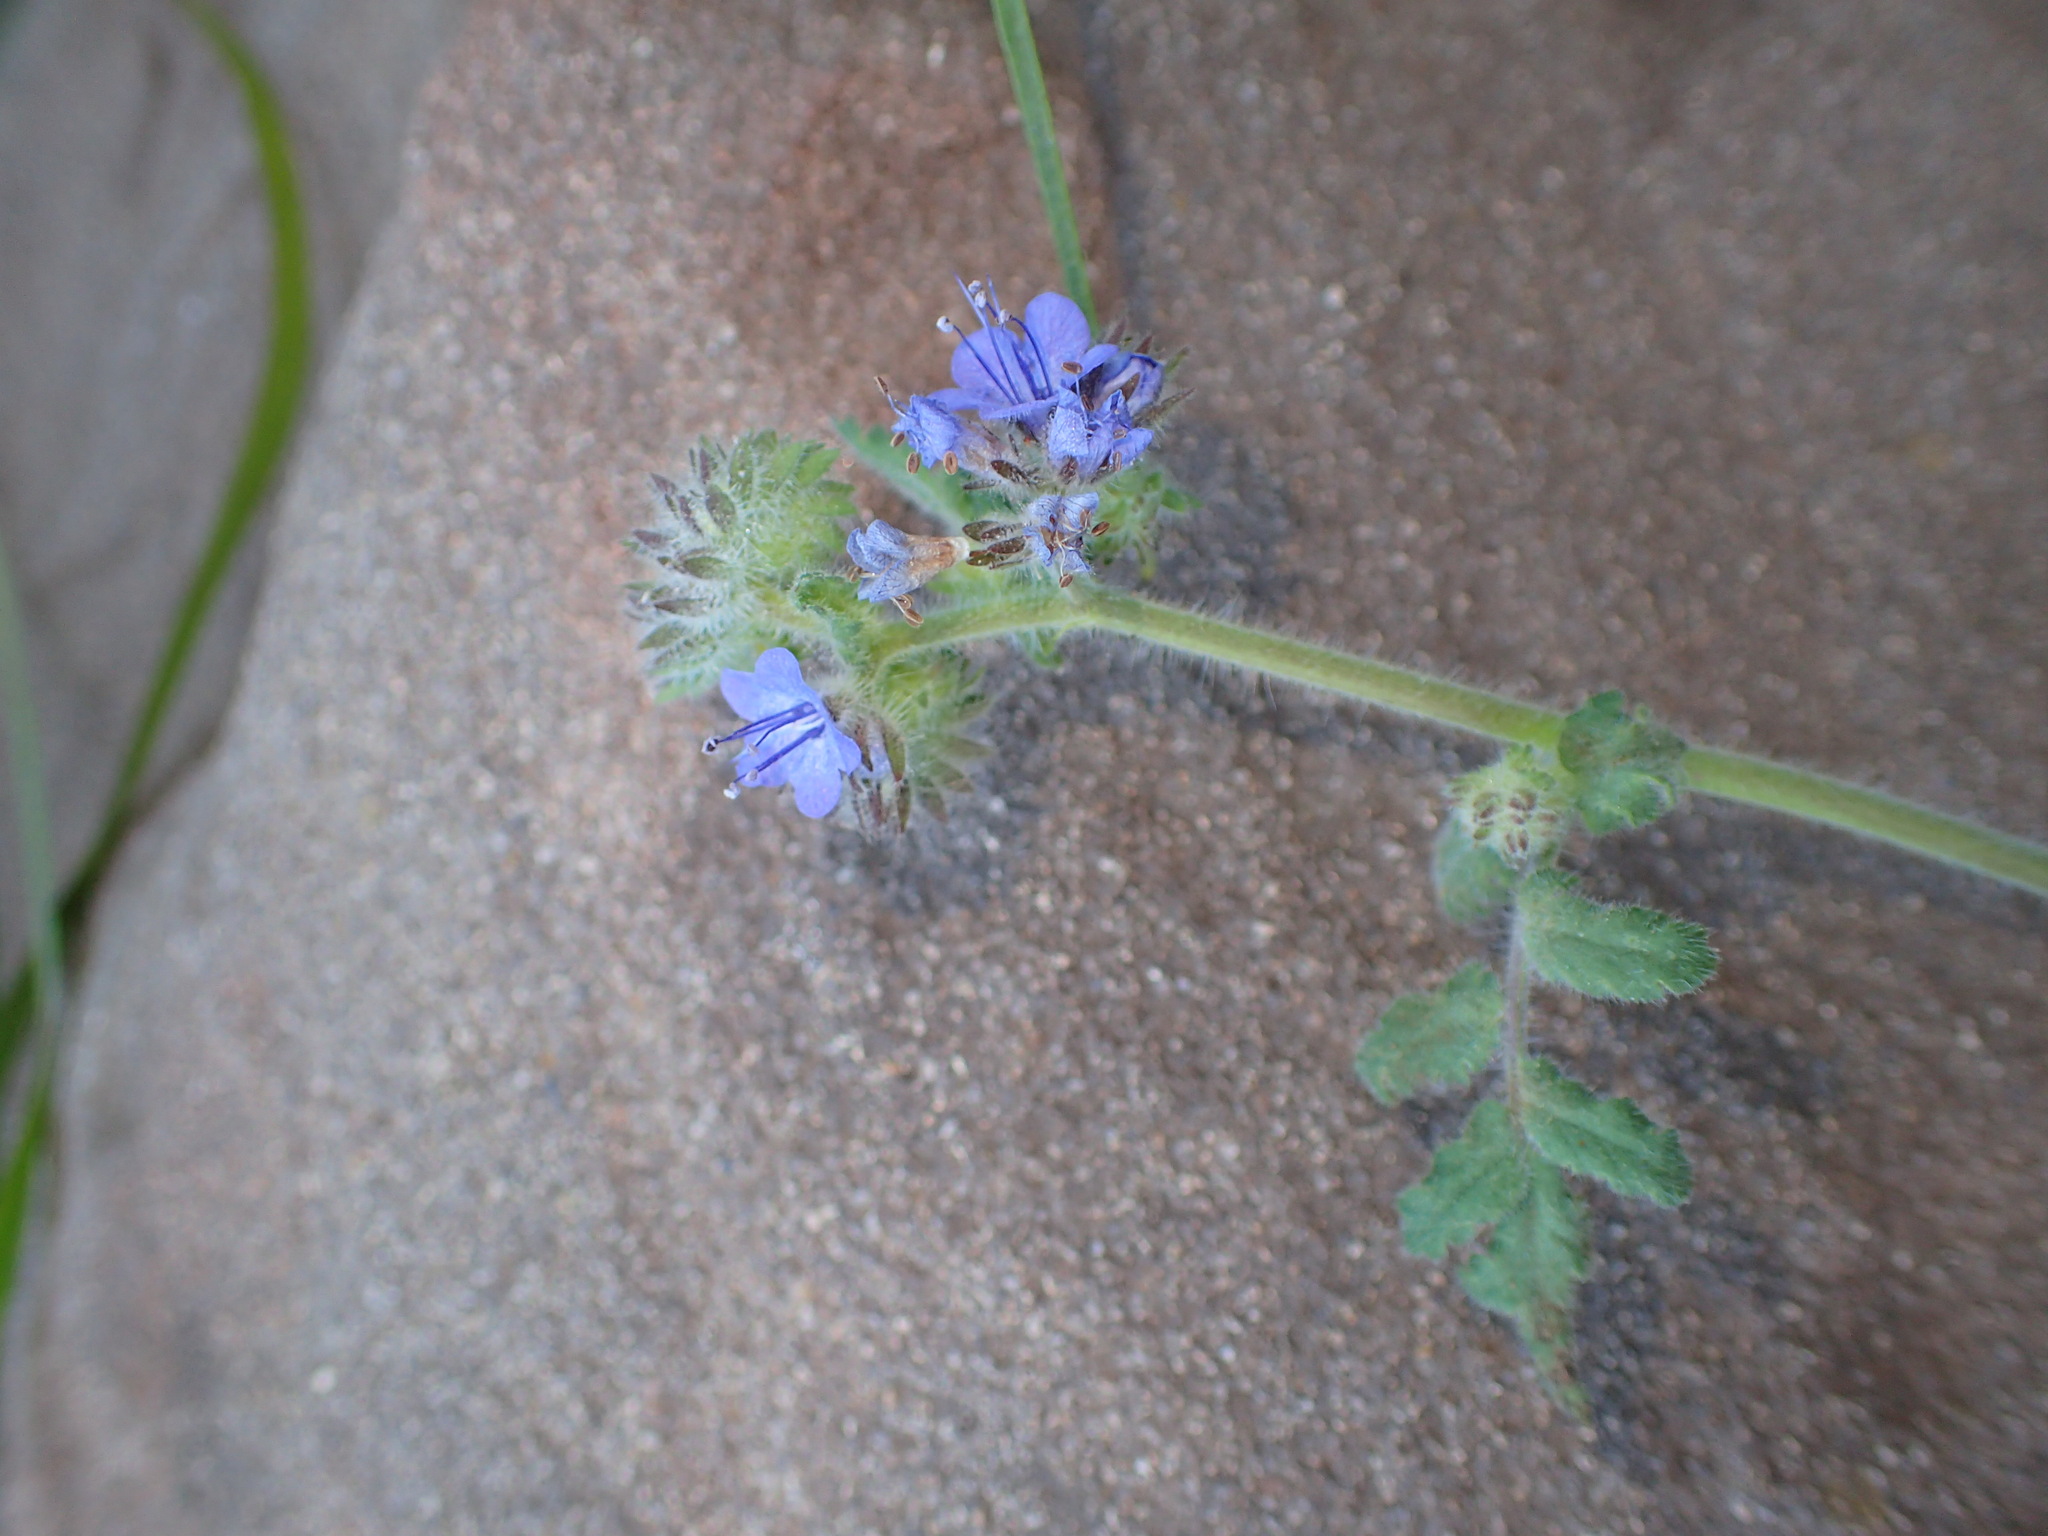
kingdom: Plantae
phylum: Tracheophyta
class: Magnoliopsida
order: Boraginales
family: Hydrophyllaceae
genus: Phacelia
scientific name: Phacelia distans
